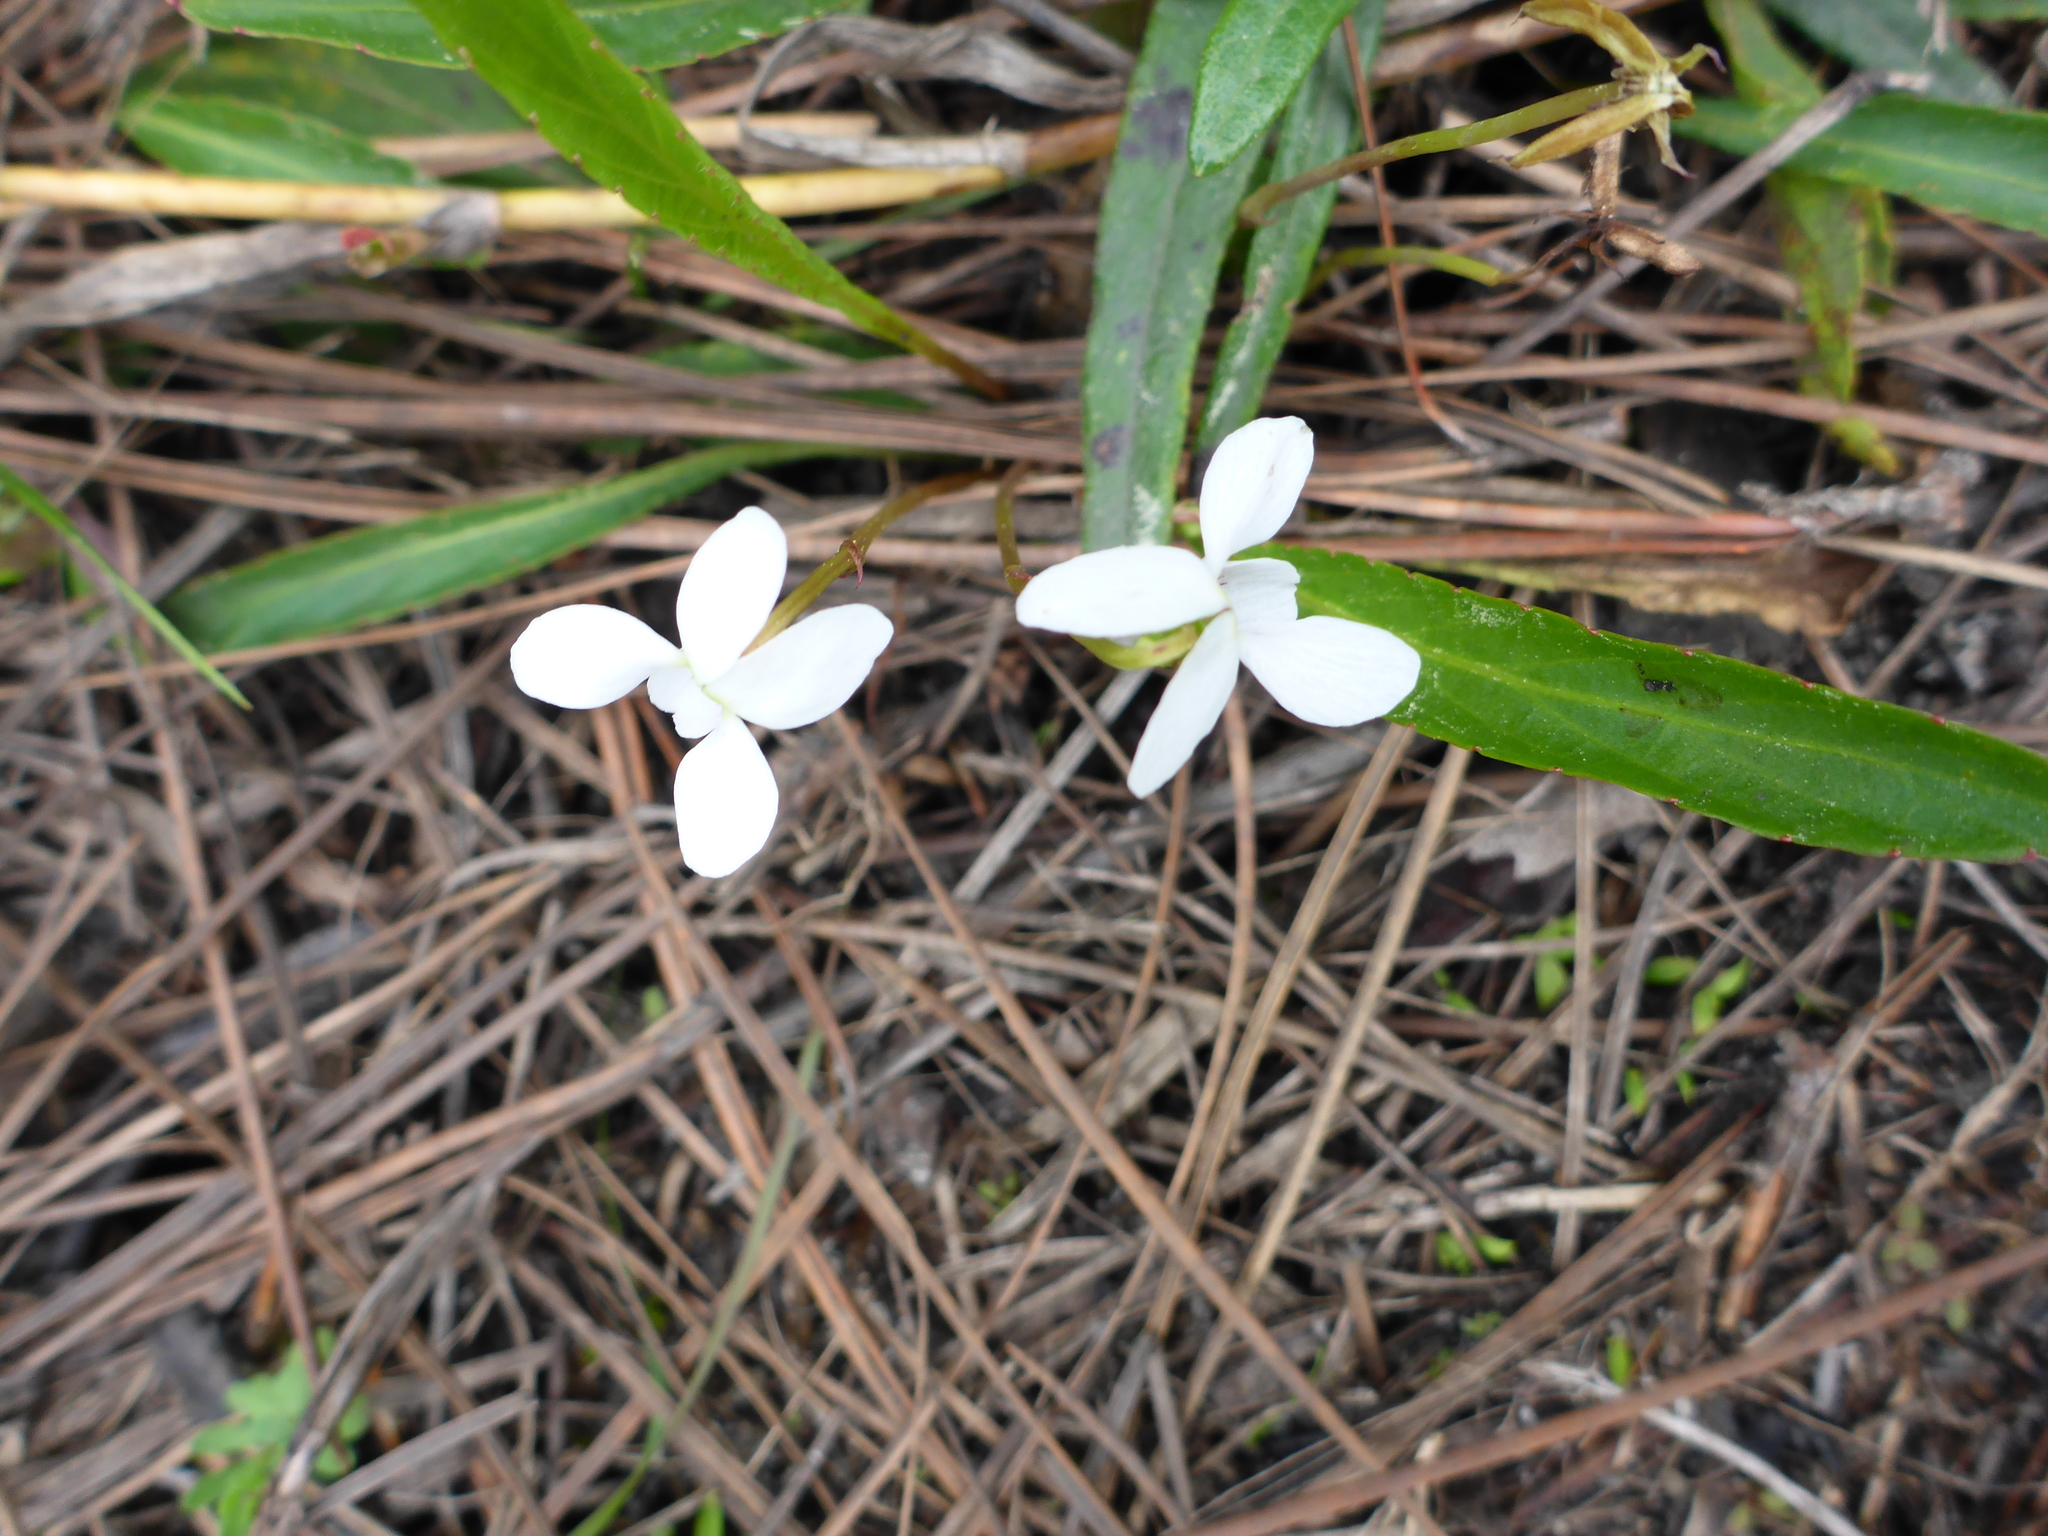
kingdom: Plantae
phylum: Tracheophyta
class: Magnoliopsida
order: Malpighiales
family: Violaceae
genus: Viola
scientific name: Viola lanceolata
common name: Bog white violet
